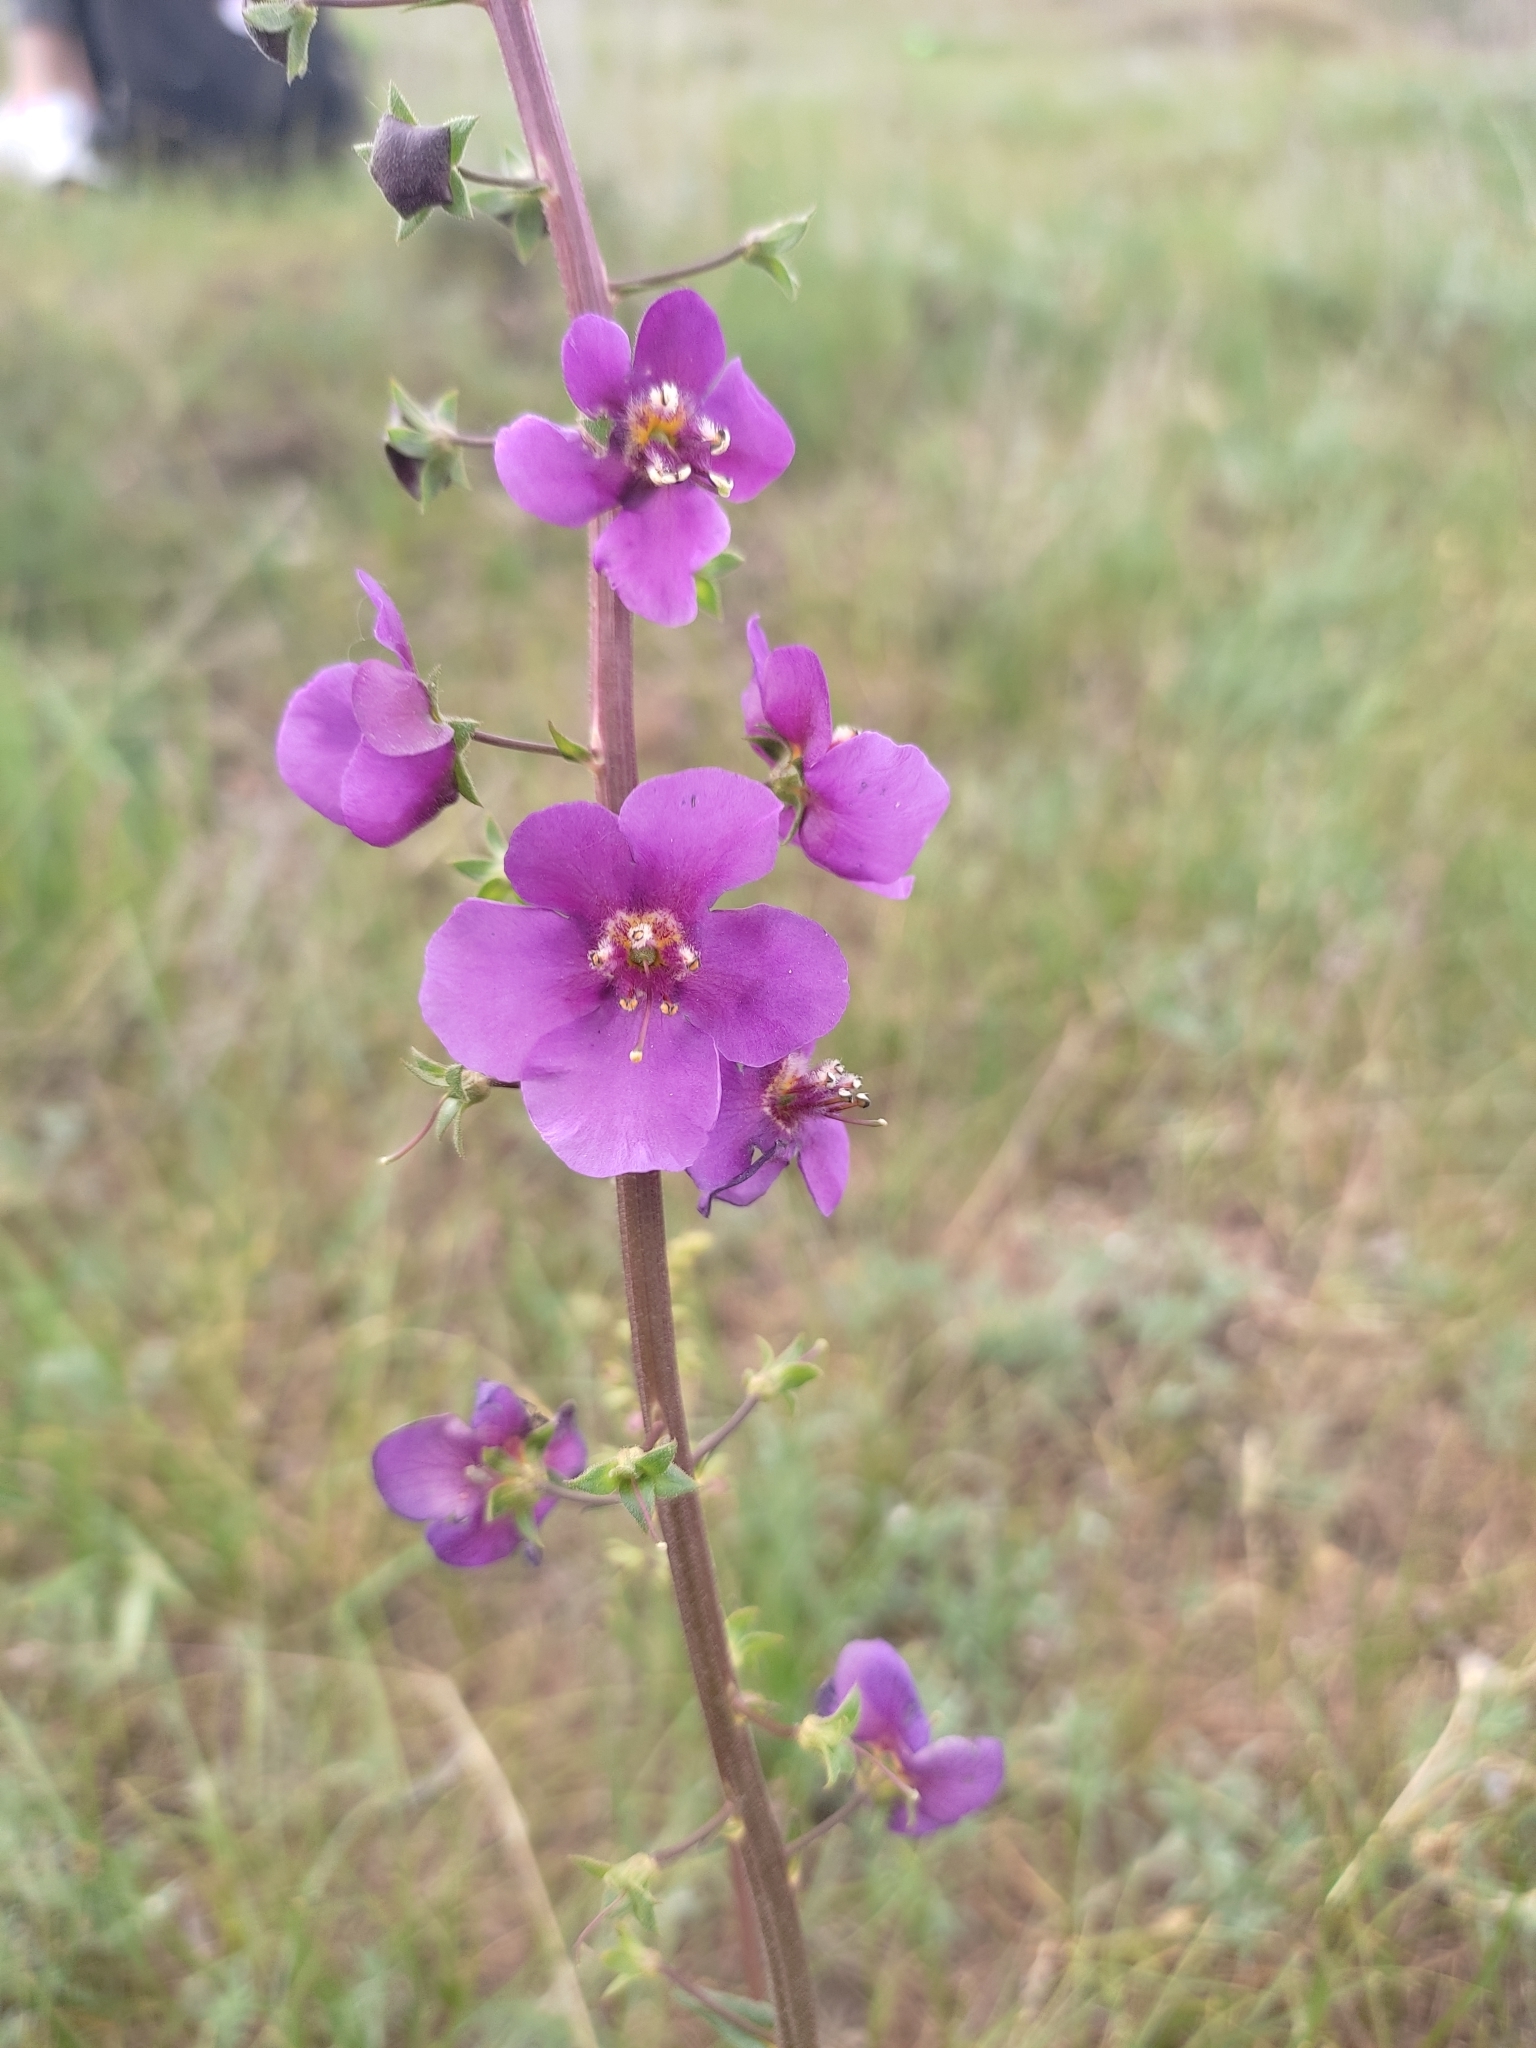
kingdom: Plantae
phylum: Tracheophyta
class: Magnoliopsida
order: Lamiales
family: Scrophulariaceae
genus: Verbascum
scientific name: Verbascum phoeniceum
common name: Purple mullein
